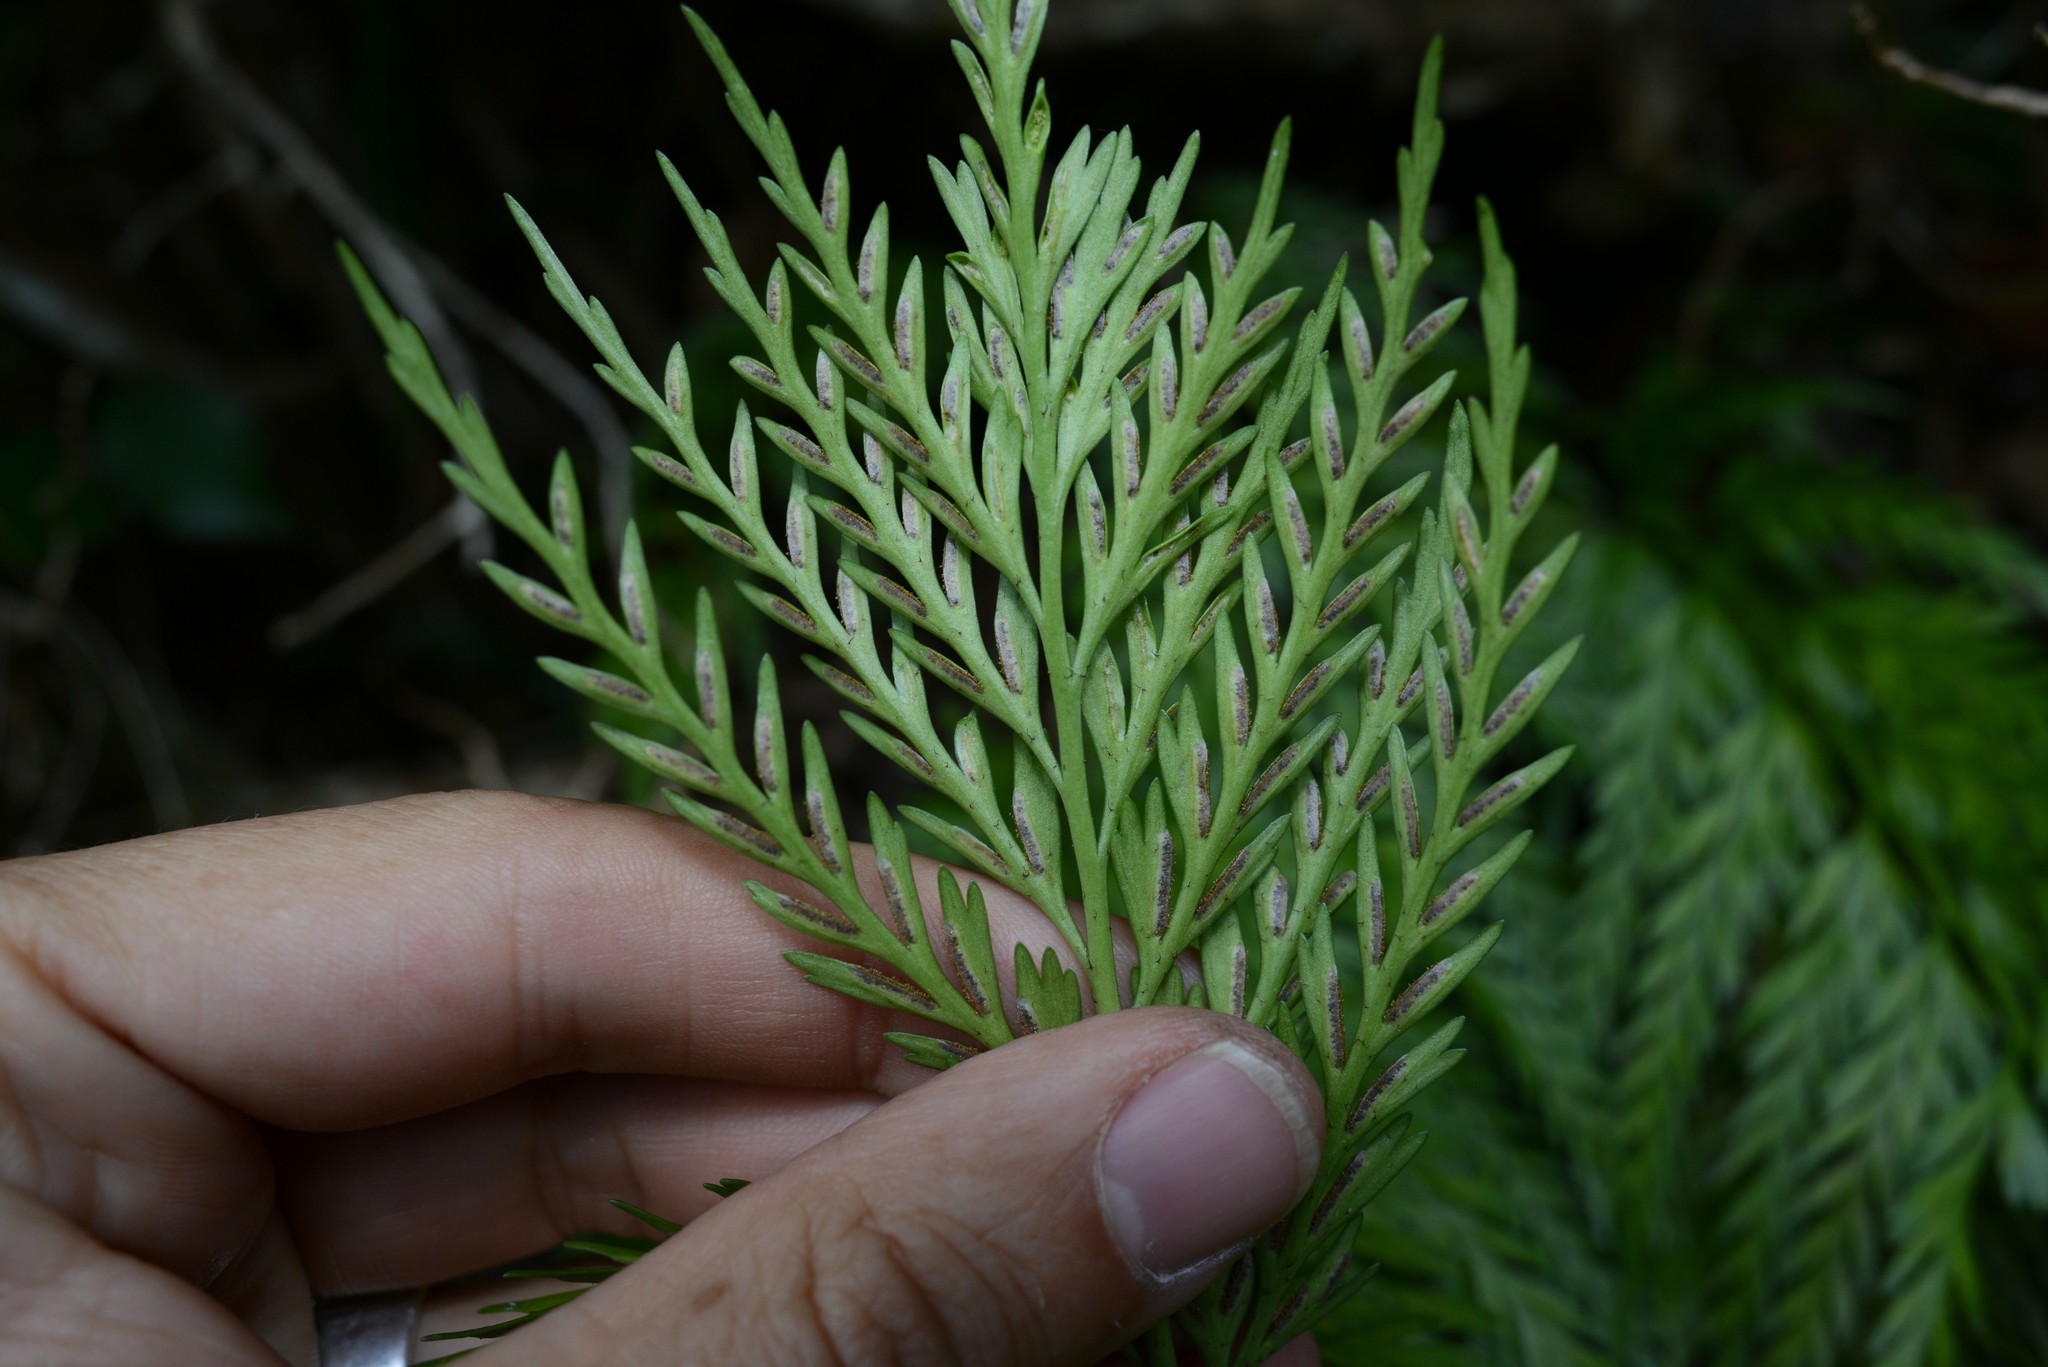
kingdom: Plantae
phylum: Tracheophyta
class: Polypodiopsida
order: Polypodiales
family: Aspleniaceae
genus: Asplenium
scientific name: Asplenium appendiculatum
